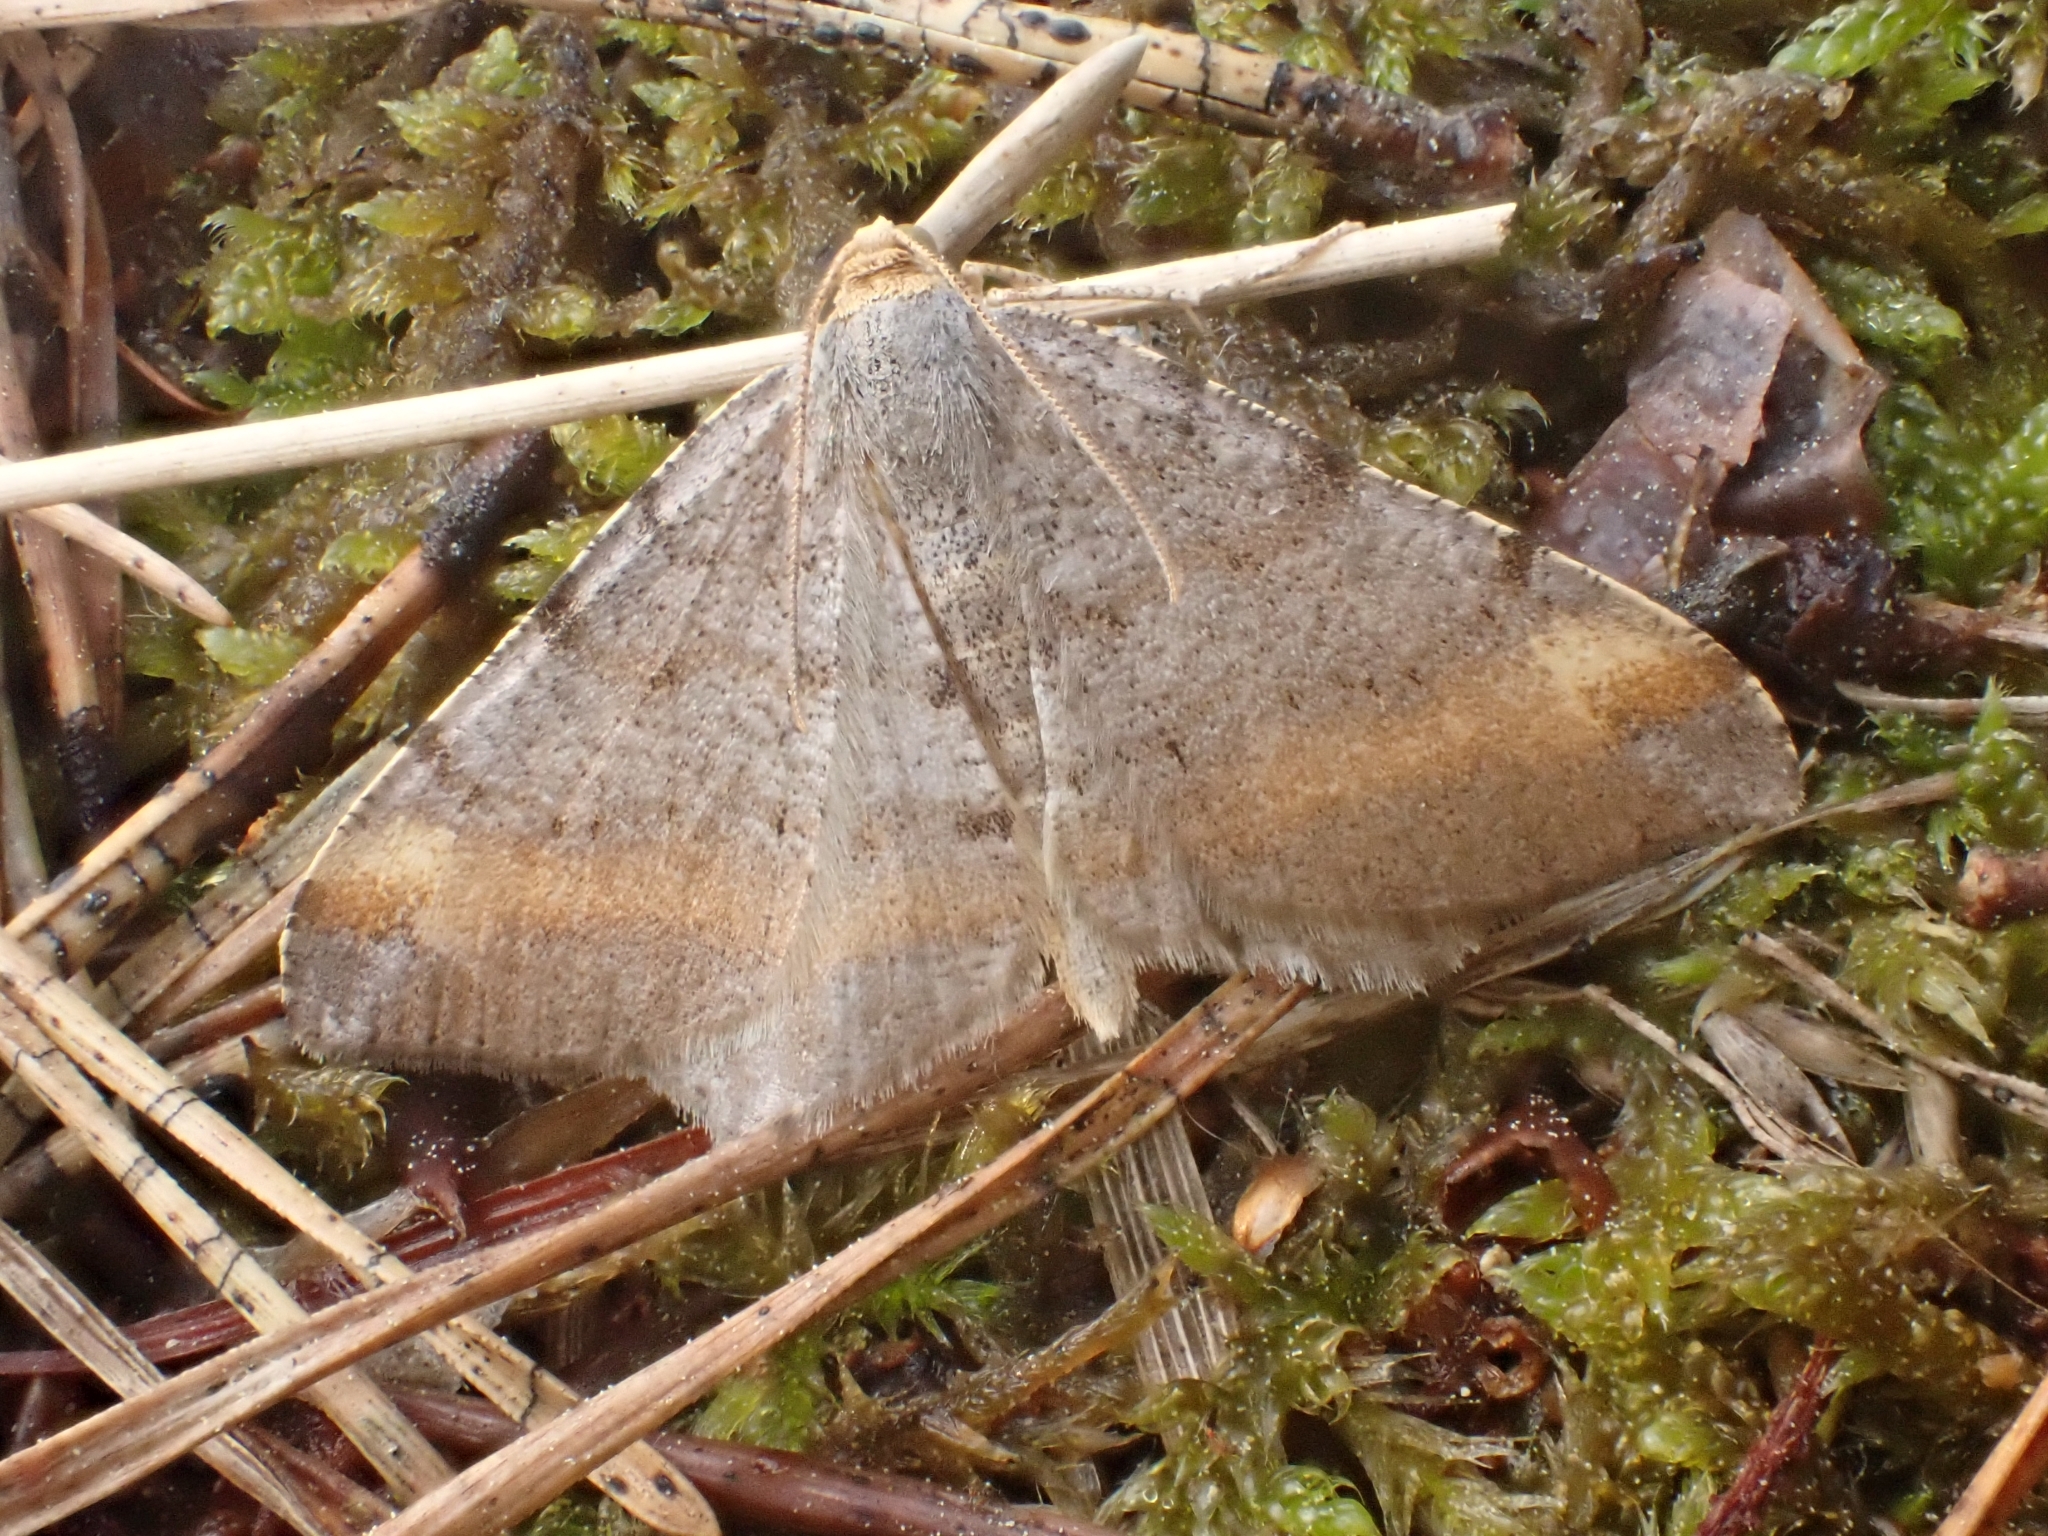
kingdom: Animalia
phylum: Arthropoda
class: Insecta
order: Lepidoptera
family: Geometridae
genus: Macaria
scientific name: Macaria liturata
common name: Tawny-barred angle
